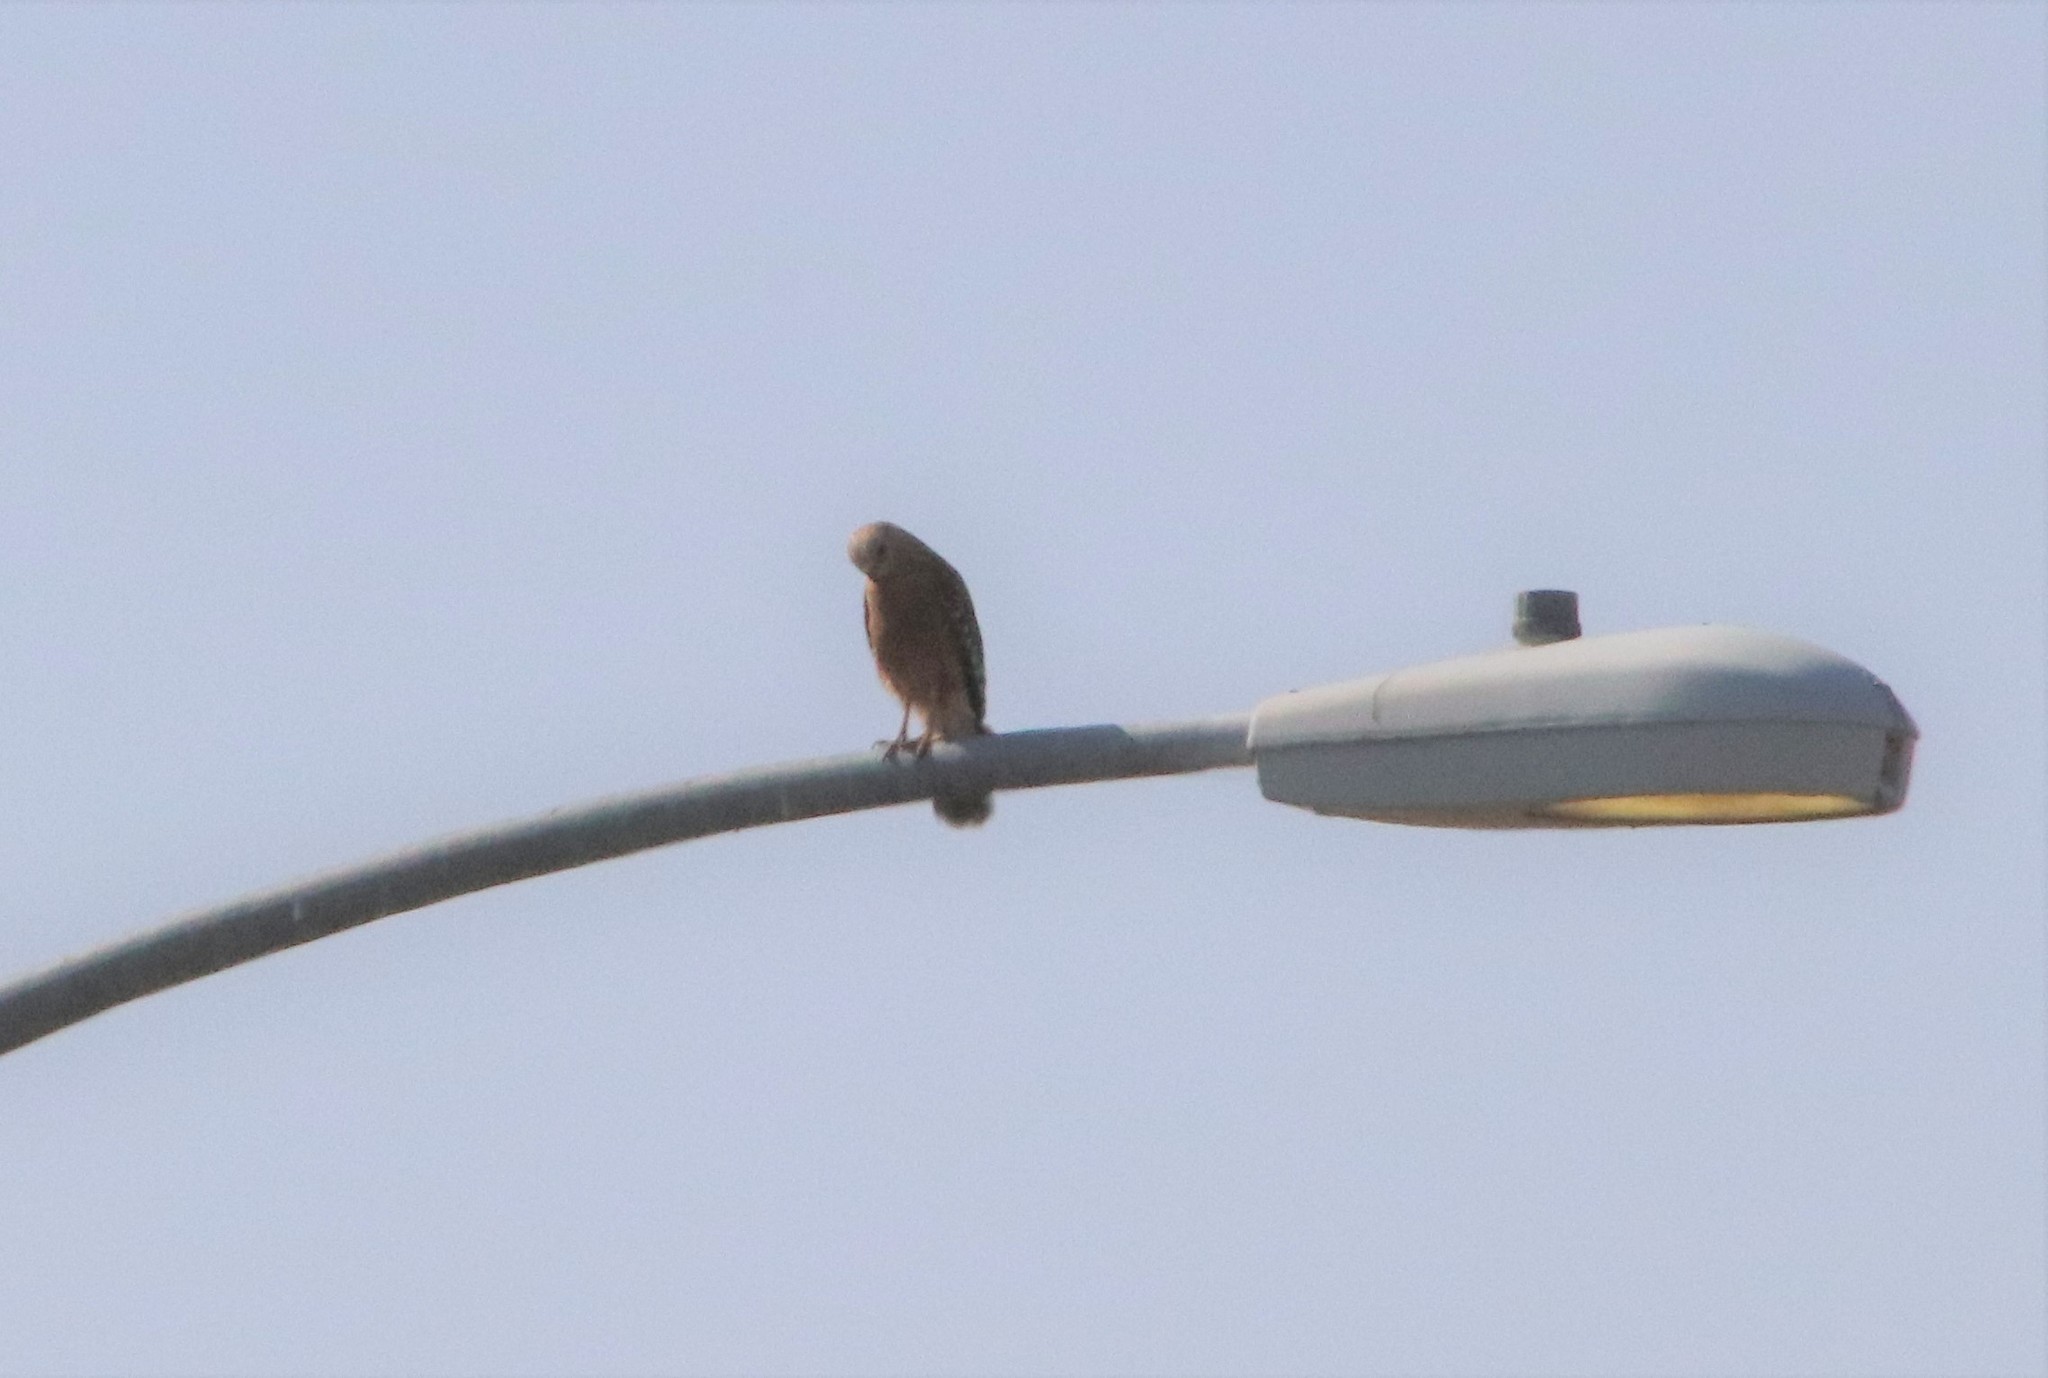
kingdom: Animalia
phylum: Chordata
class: Aves
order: Accipitriformes
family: Accipitridae
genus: Buteo
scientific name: Buteo lineatus
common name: Red-shouldered hawk
